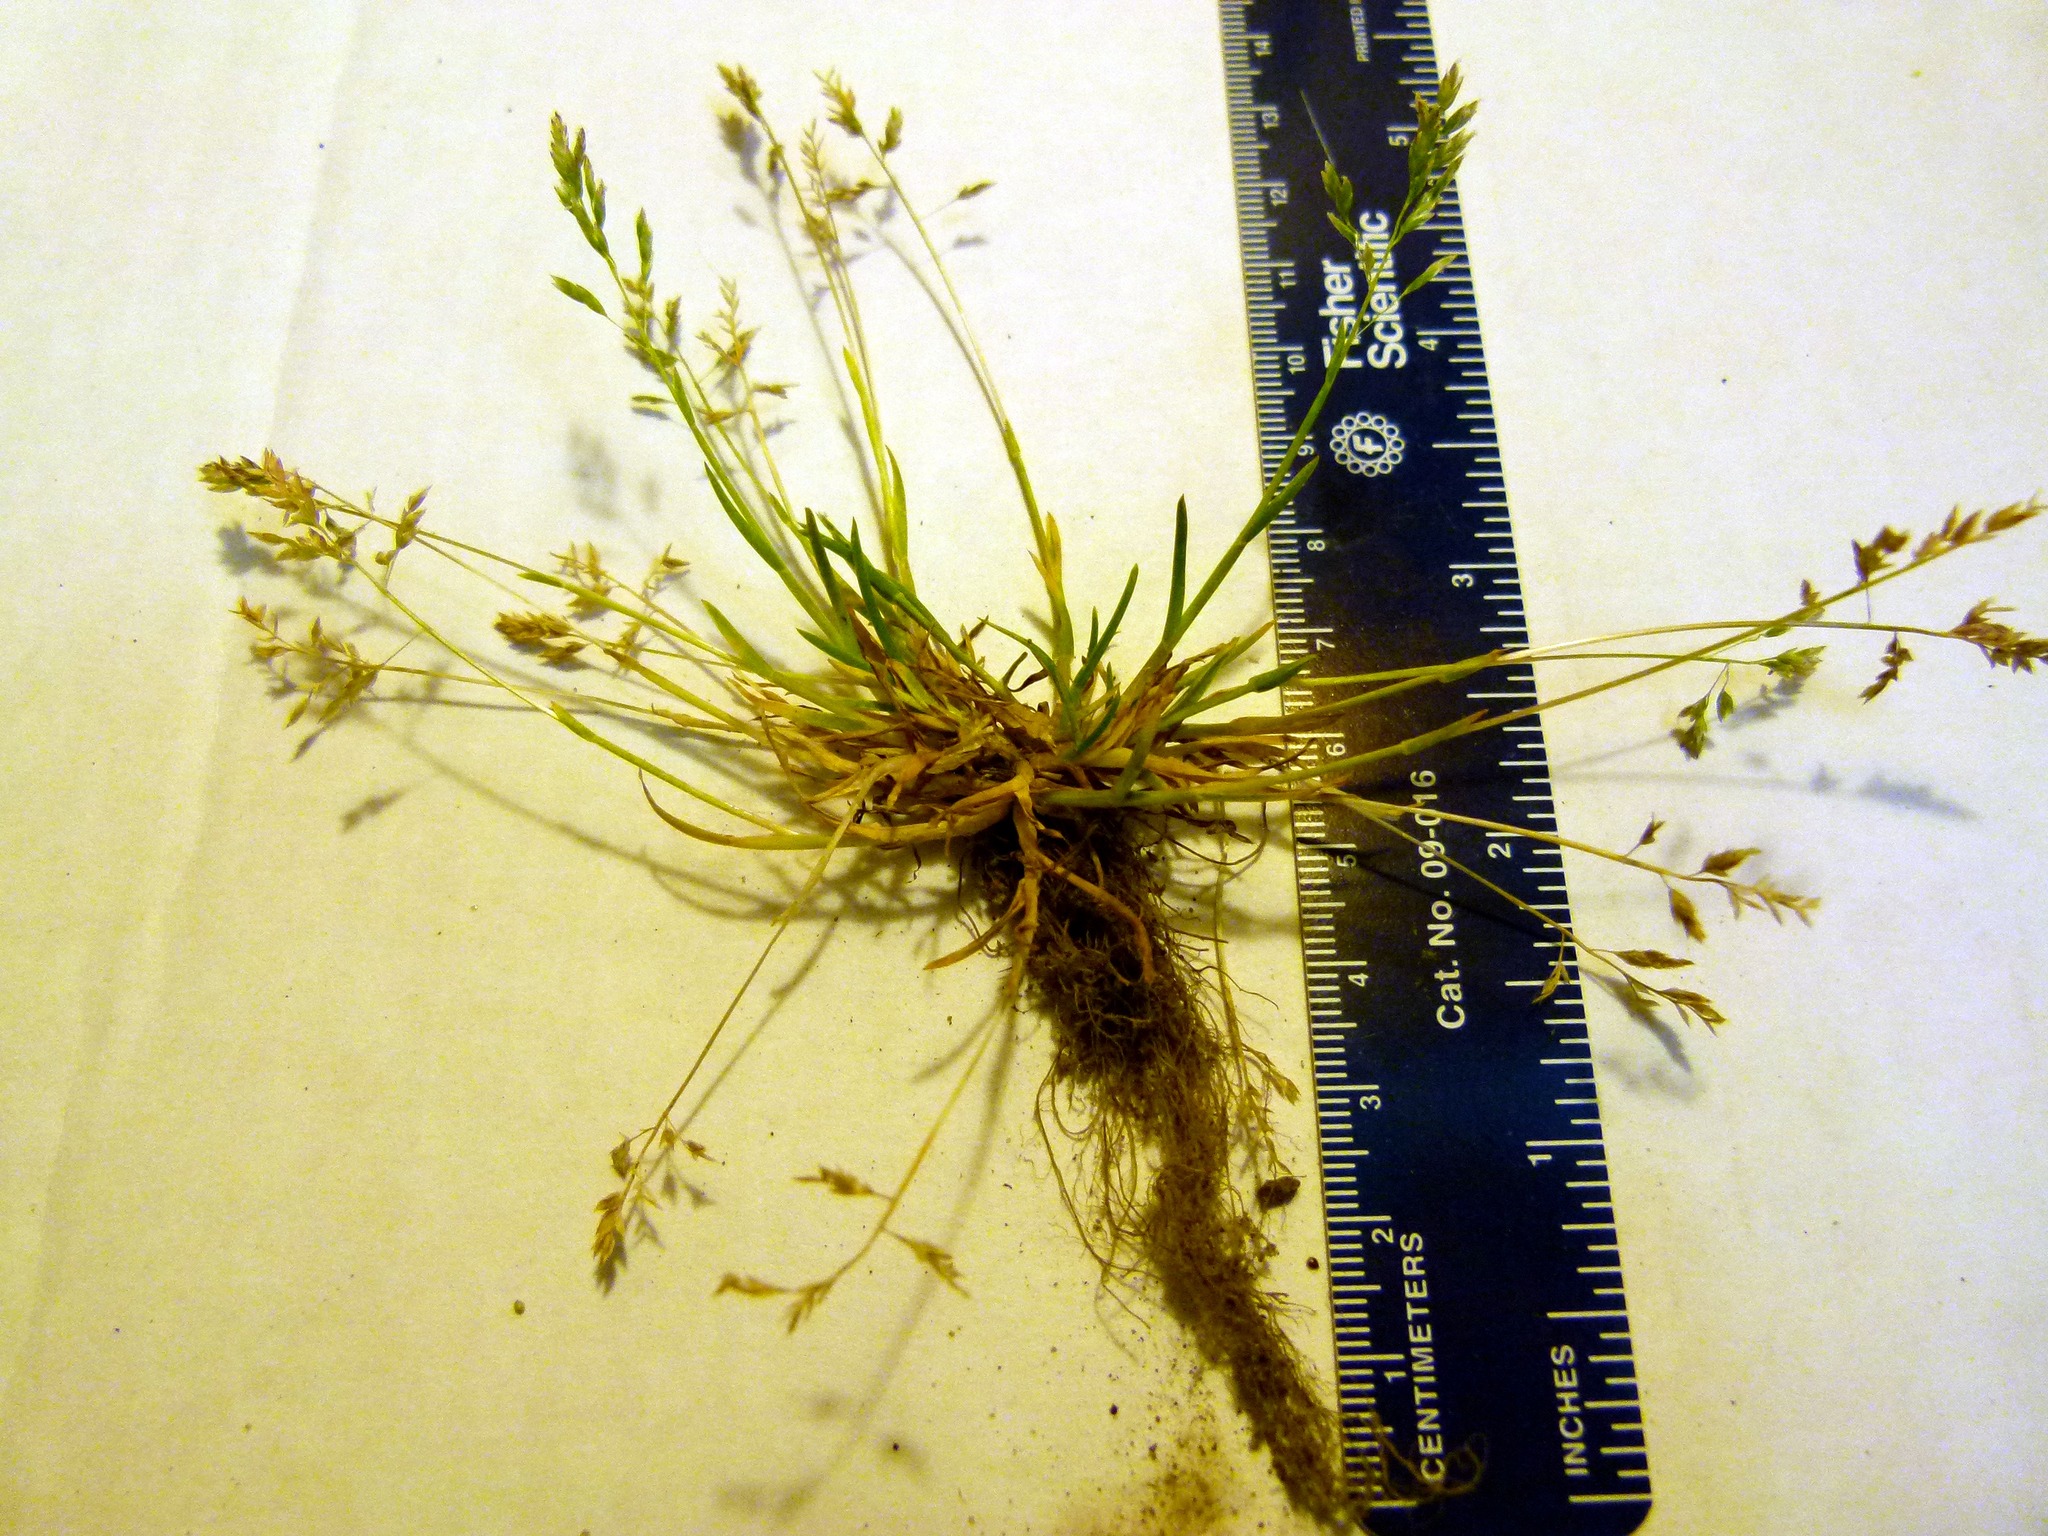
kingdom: Plantae
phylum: Tracheophyta
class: Liliopsida
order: Poales
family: Poaceae
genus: Poa
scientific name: Poa annua
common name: Annual bluegrass
